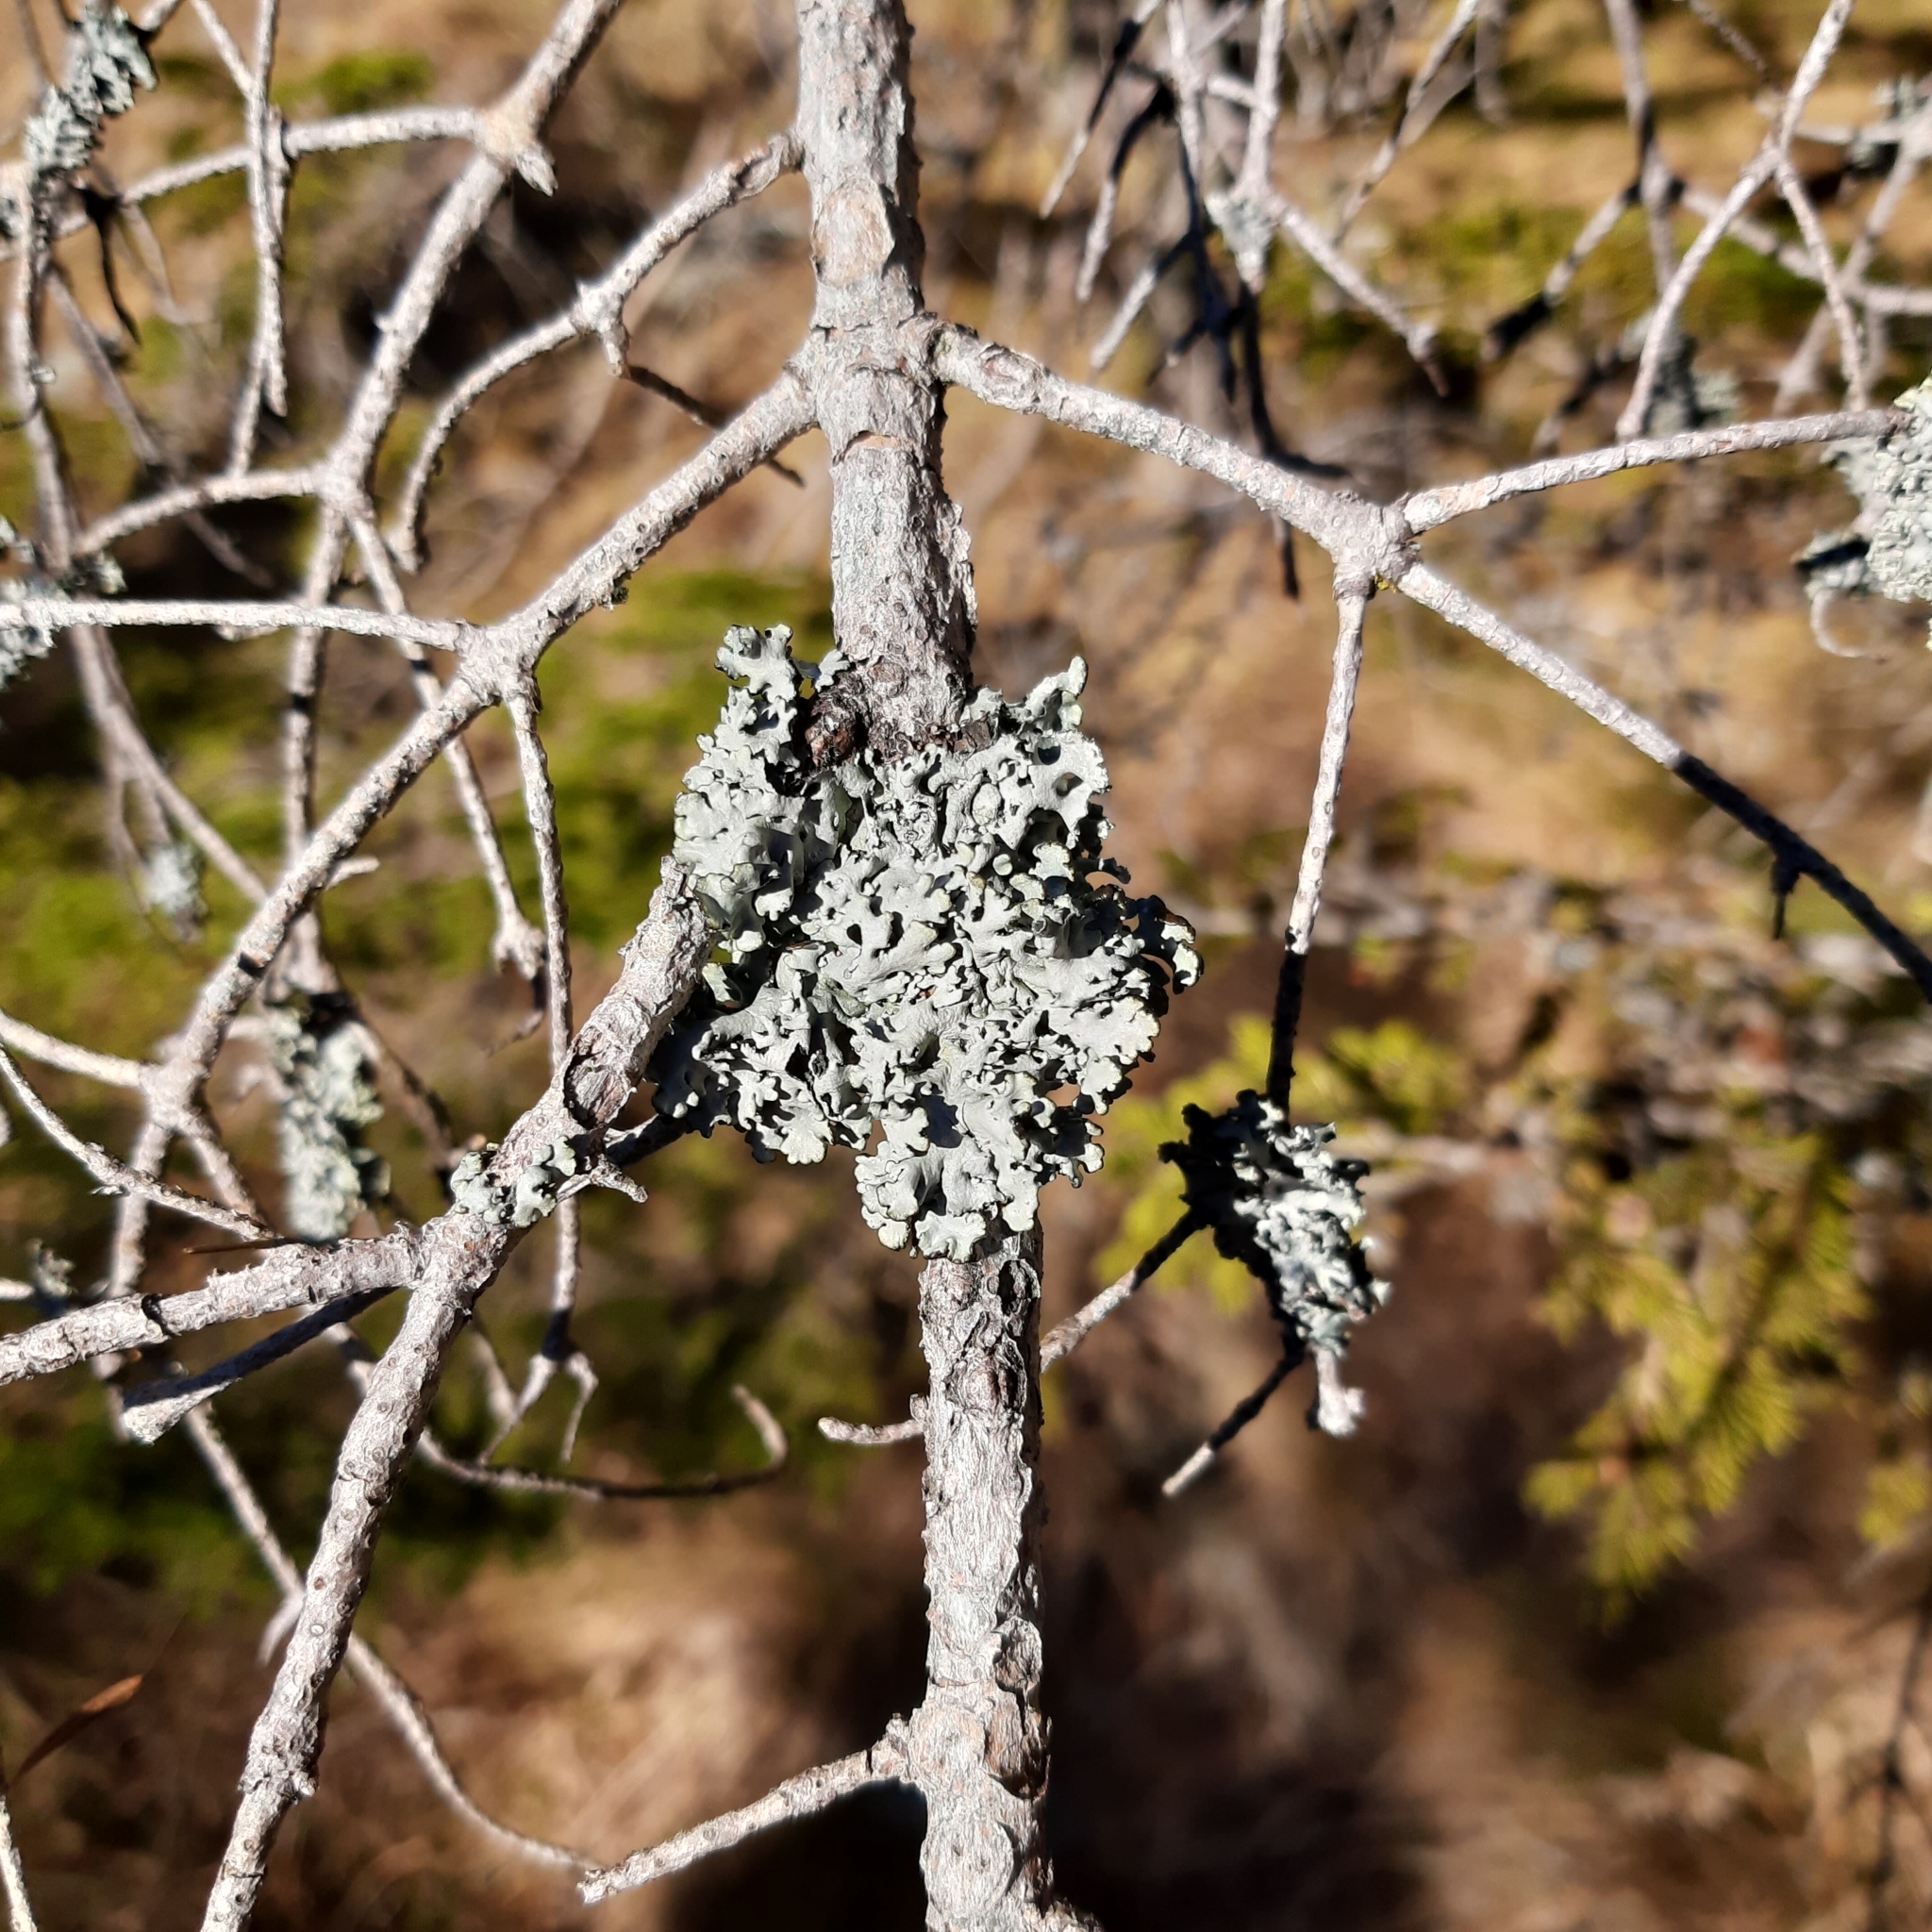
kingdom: Fungi
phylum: Ascomycota
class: Lecanoromycetes
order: Lecanorales
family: Parmeliaceae
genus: Hypogymnia
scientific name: Hypogymnia physodes
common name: Dark crottle
